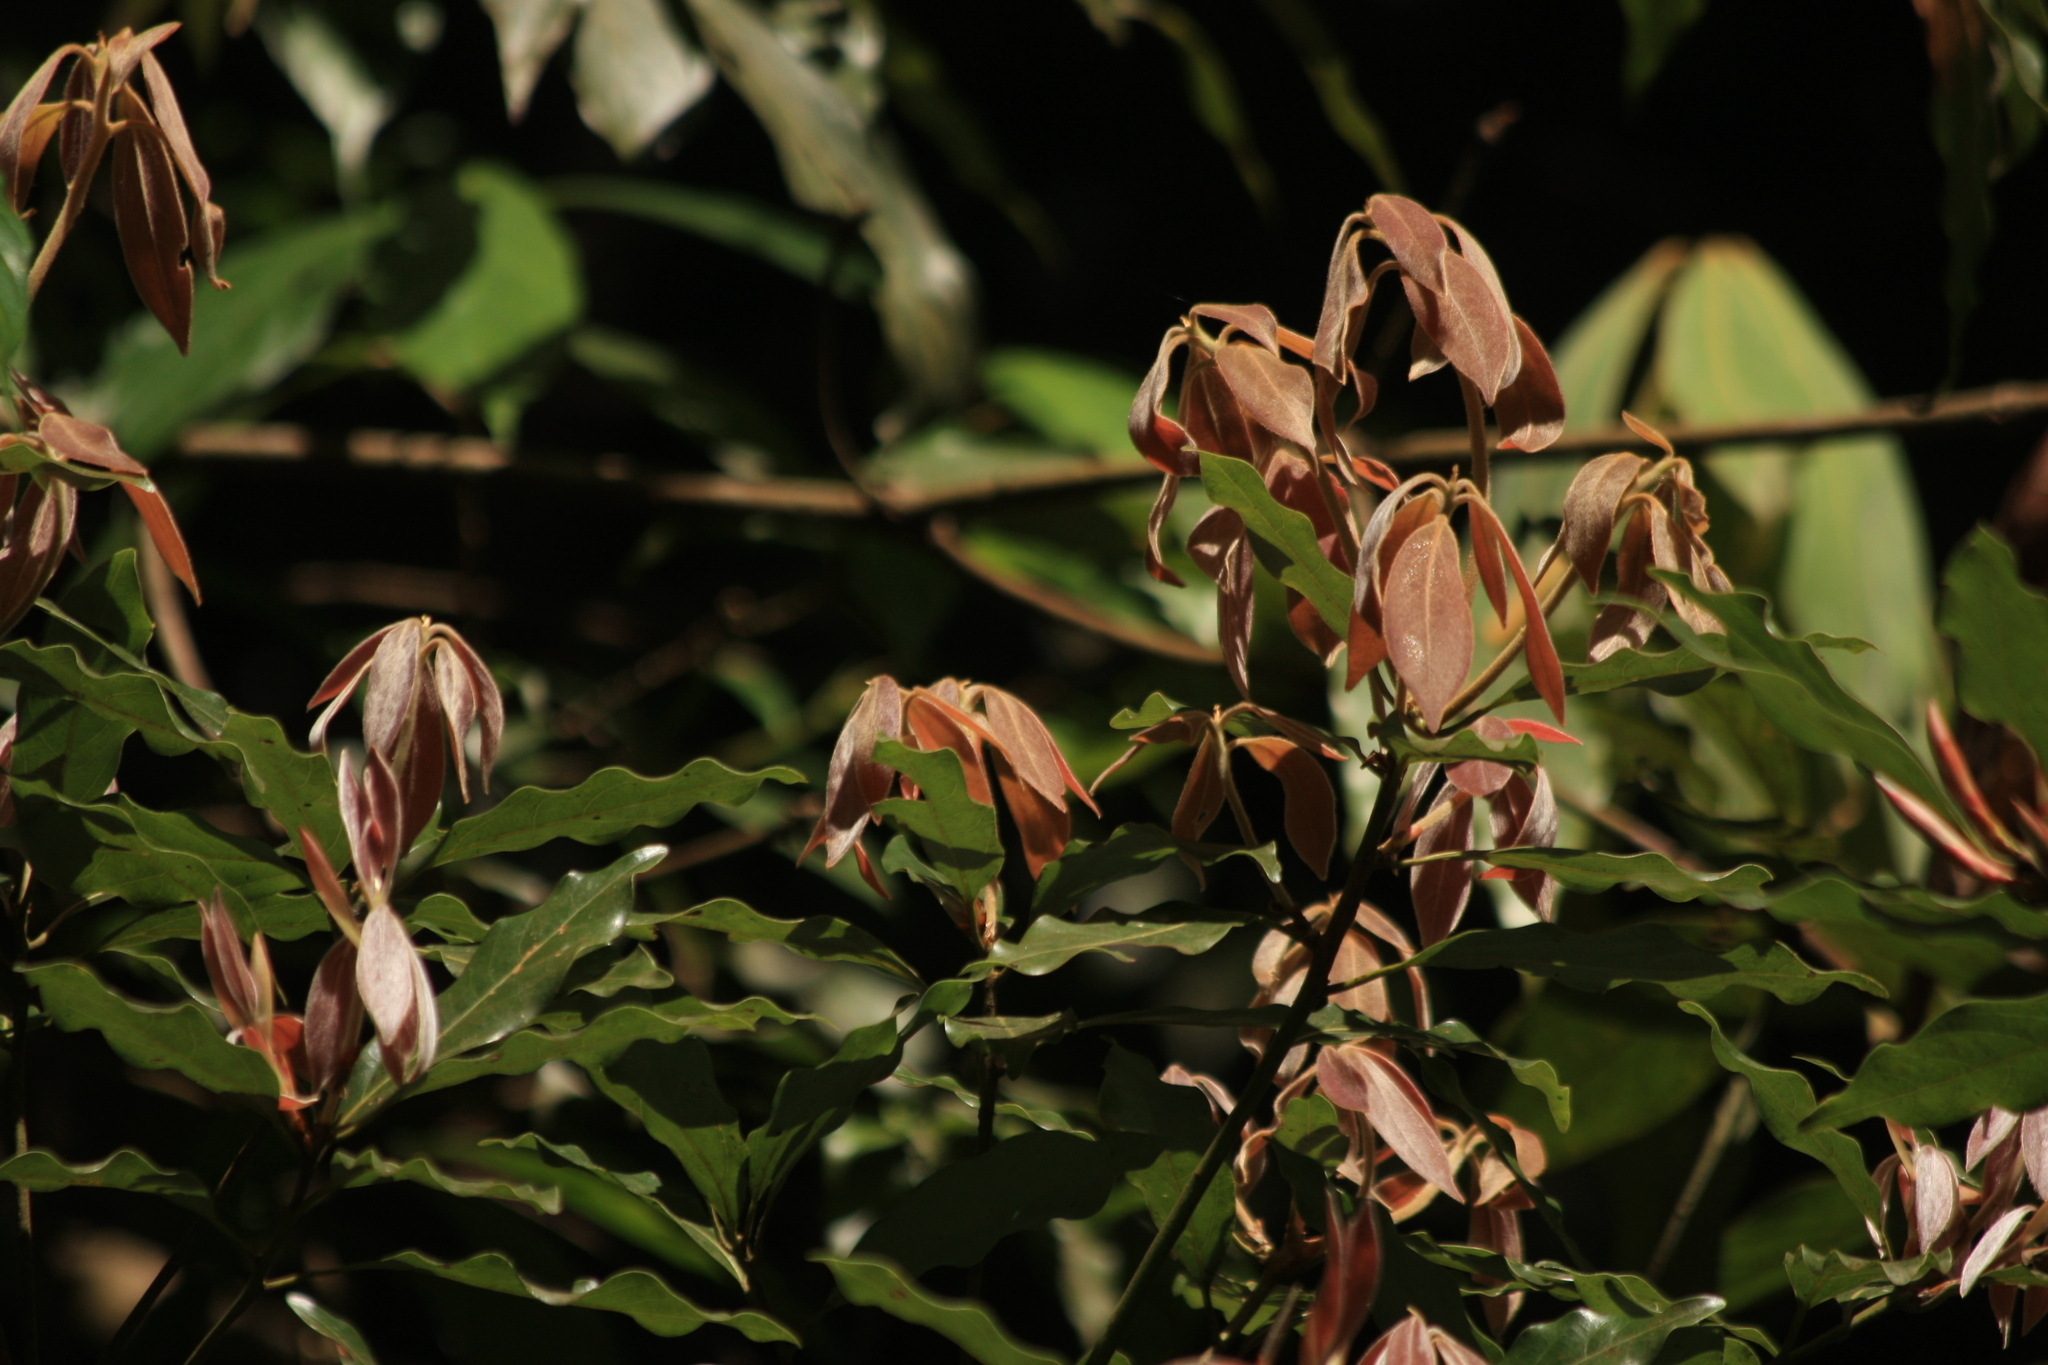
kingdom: Plantae
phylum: Tracheophyta
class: Magnoliopsida
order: Laurales
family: Lauraceae
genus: Neolitsea
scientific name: Neolitsea foliosa
